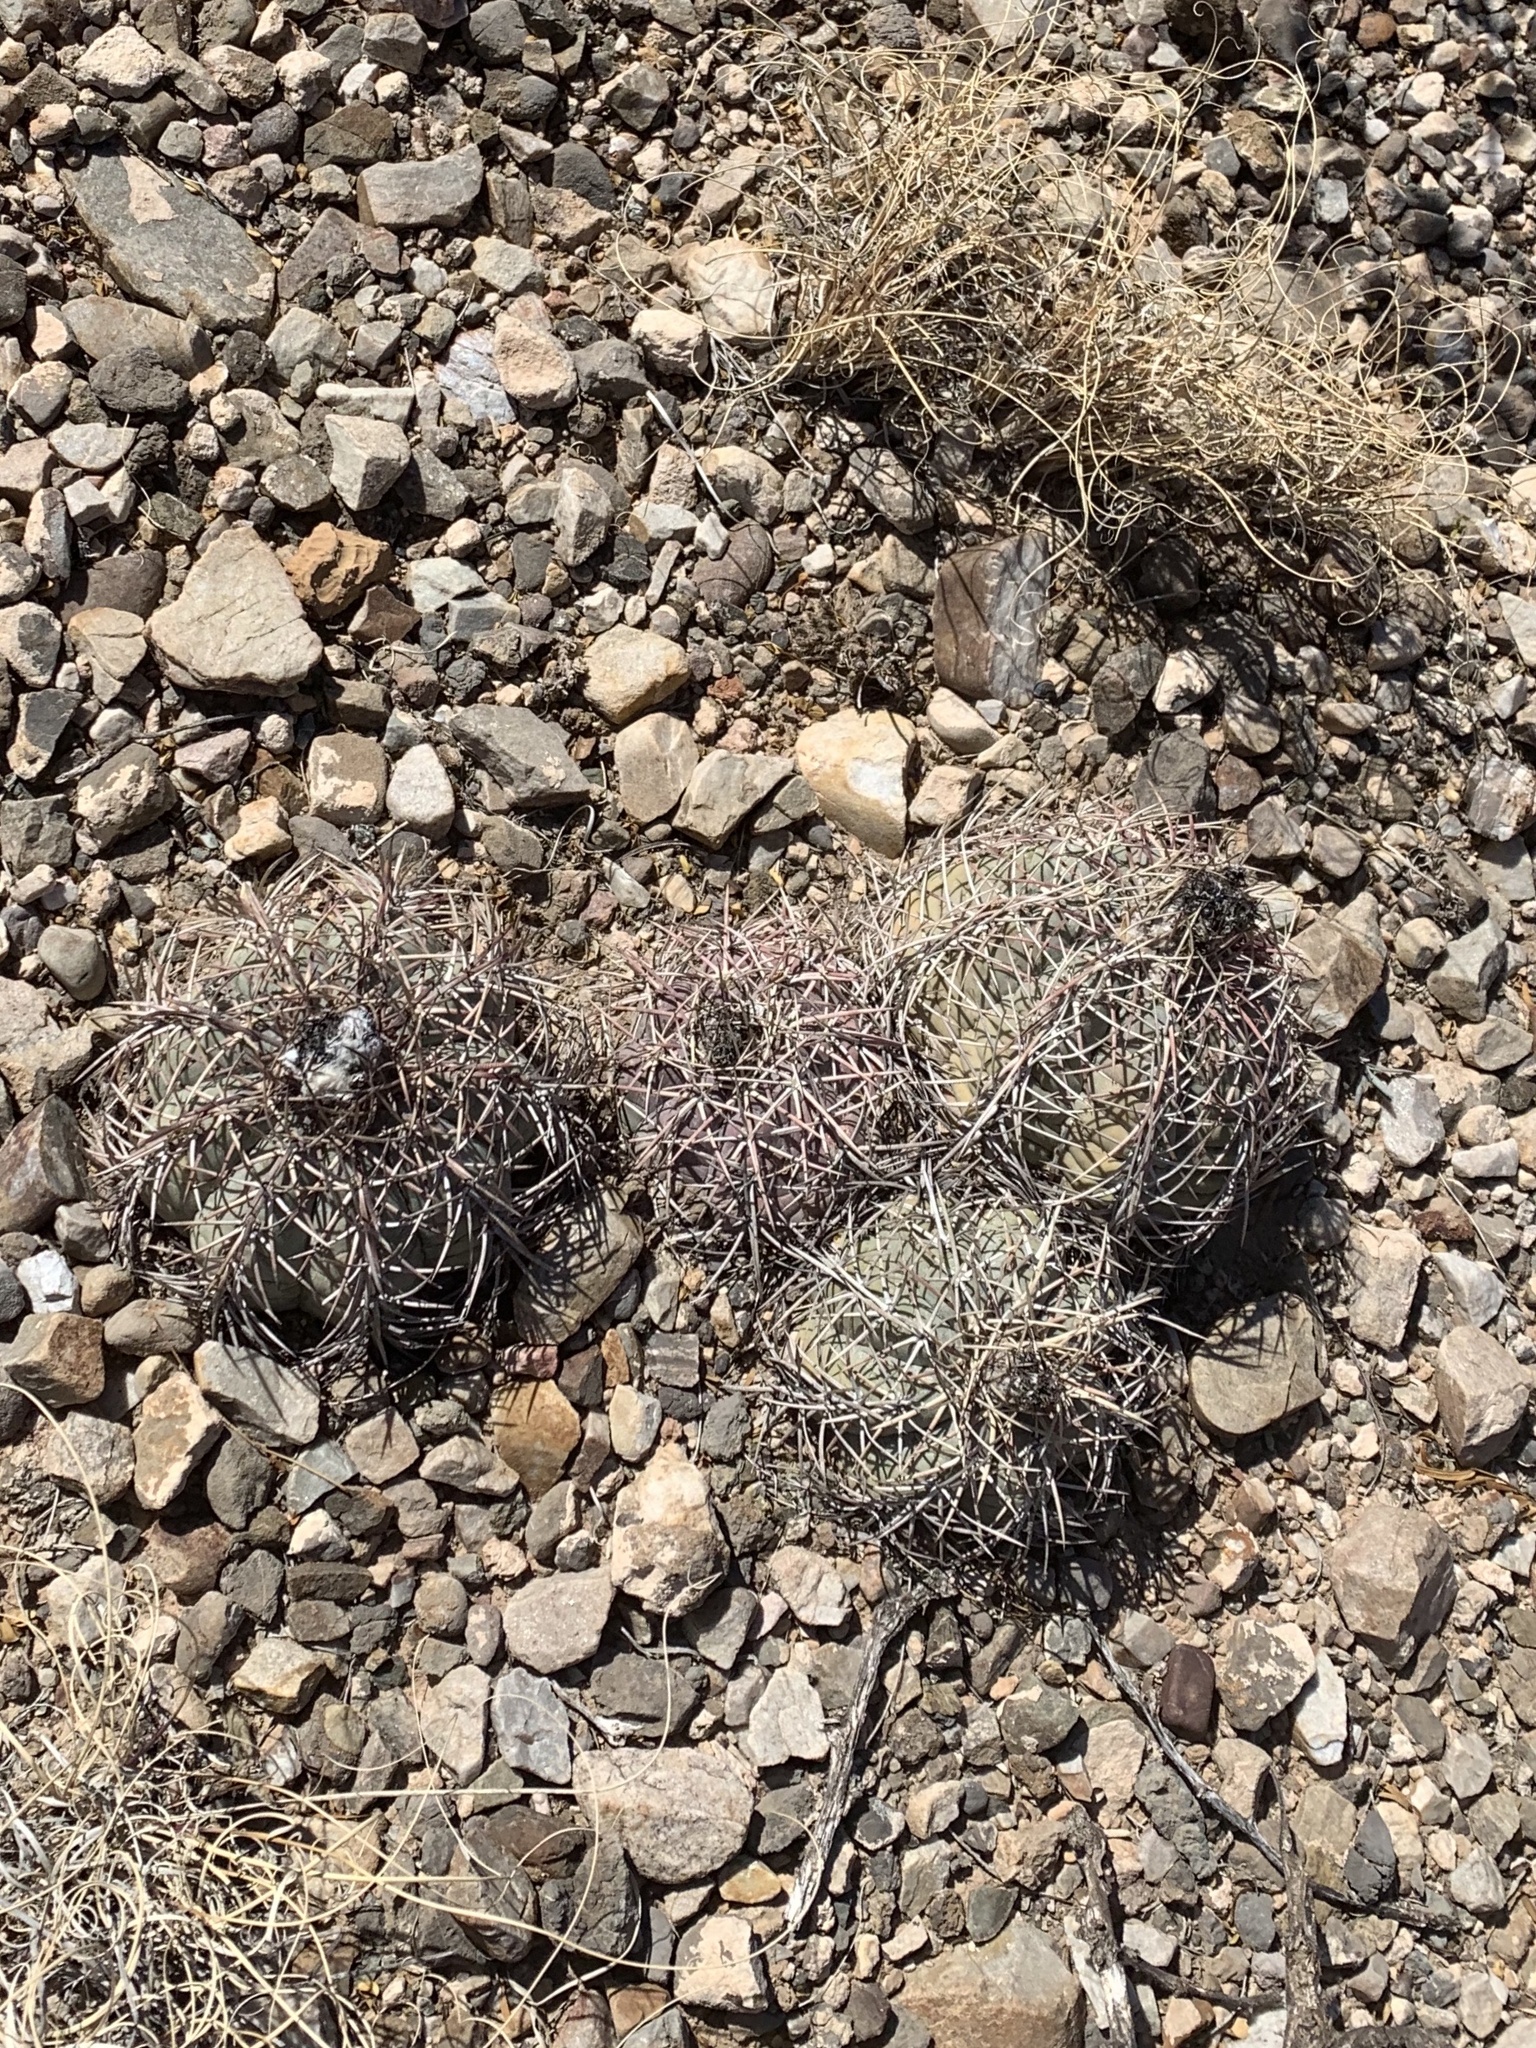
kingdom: Plantae
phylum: Tracheophyta
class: Magnoliopsida
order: Caryophyllales
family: Cactaceae
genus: Echinocactus
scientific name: Echinocactus horizonthalonius
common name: Devilshead
